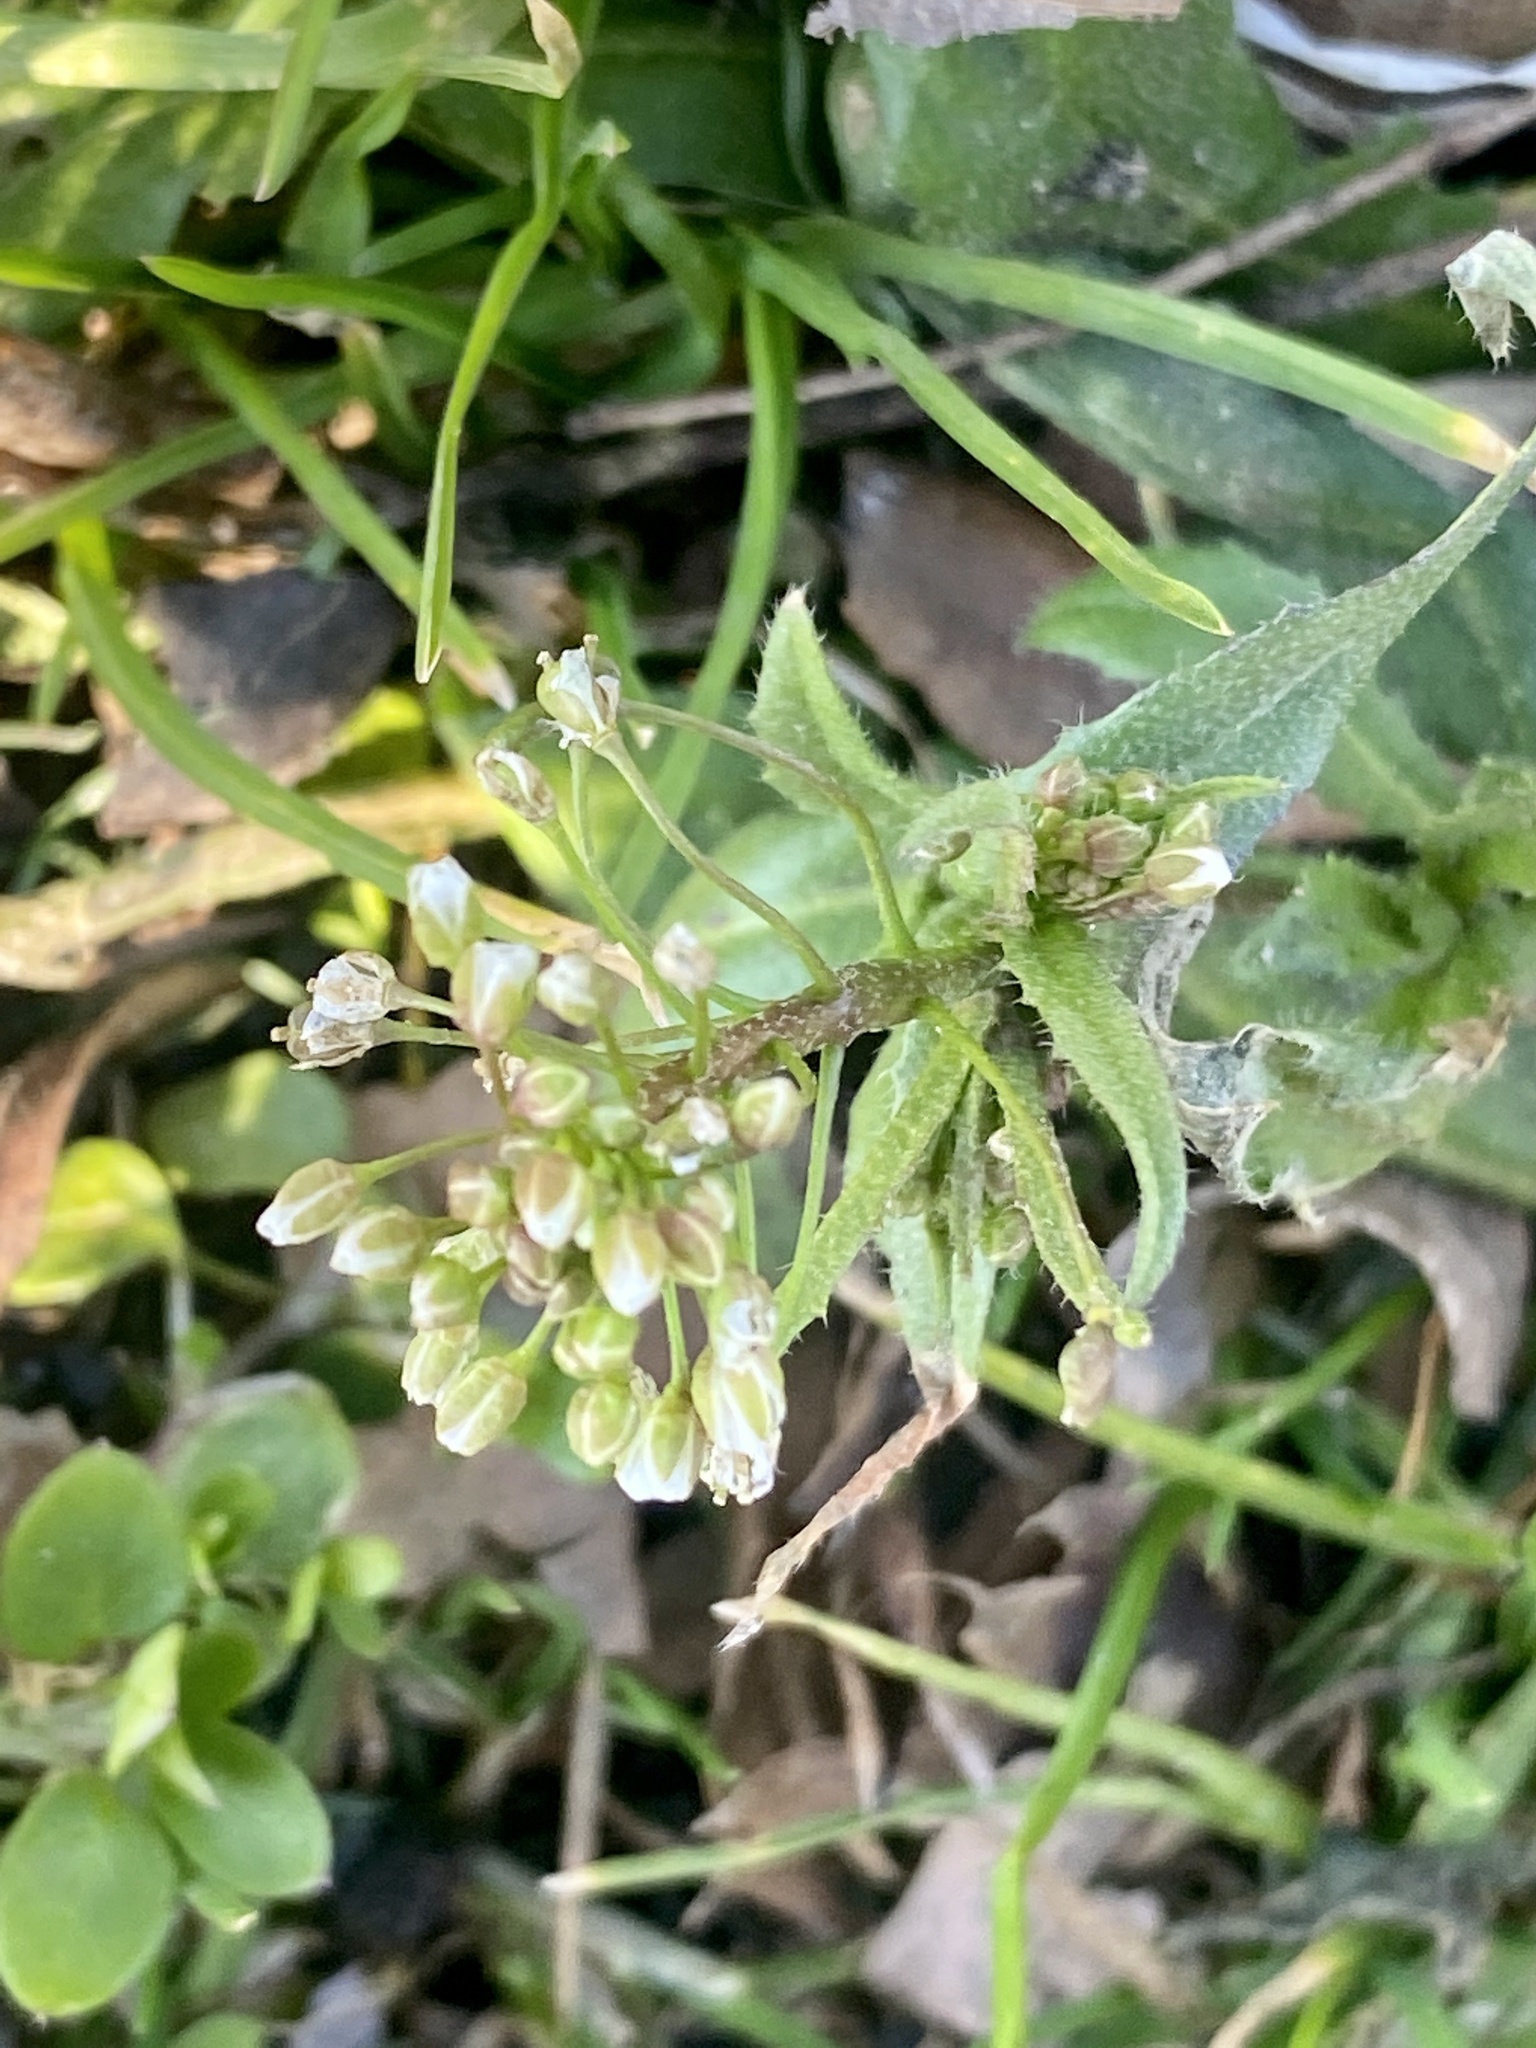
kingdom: Plantae
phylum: Tracheophyta
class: Magnoliopsida
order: Brassicales
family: Brassicaceae
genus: Capsella
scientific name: Capsella bursa-pastoris
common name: Shepherd's purse
